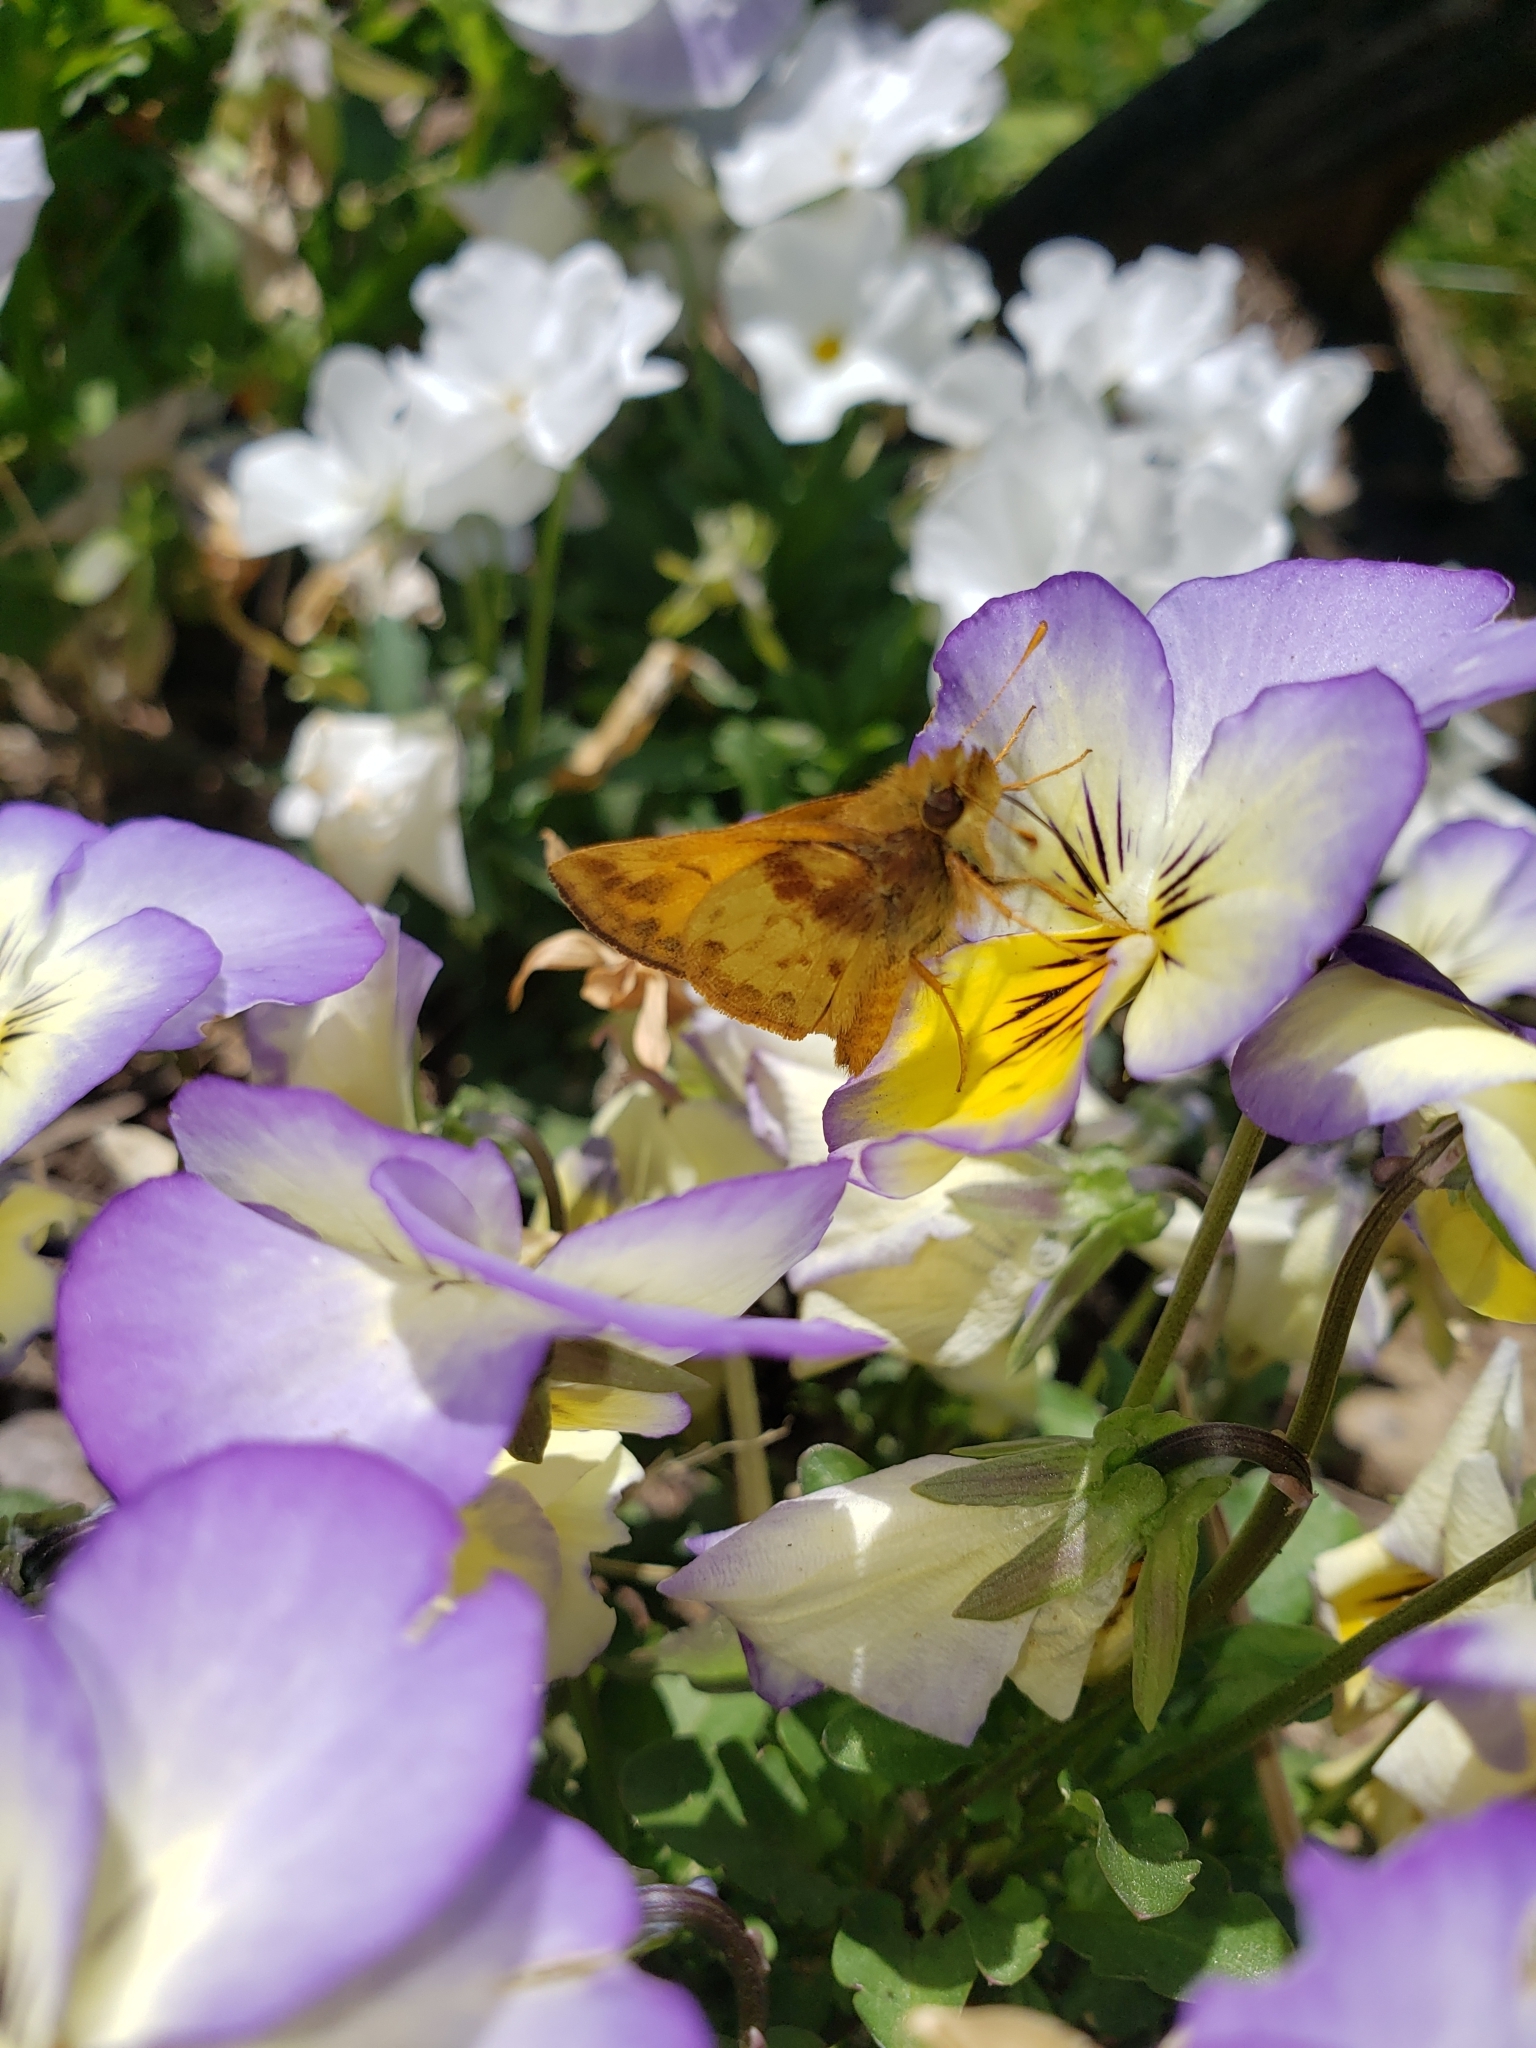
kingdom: Animalia
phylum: Arthropoda
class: Insecta
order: Lepidoptera
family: Hesperiidae
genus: Lon
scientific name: Lon zabulon
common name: Zabulon skipper
